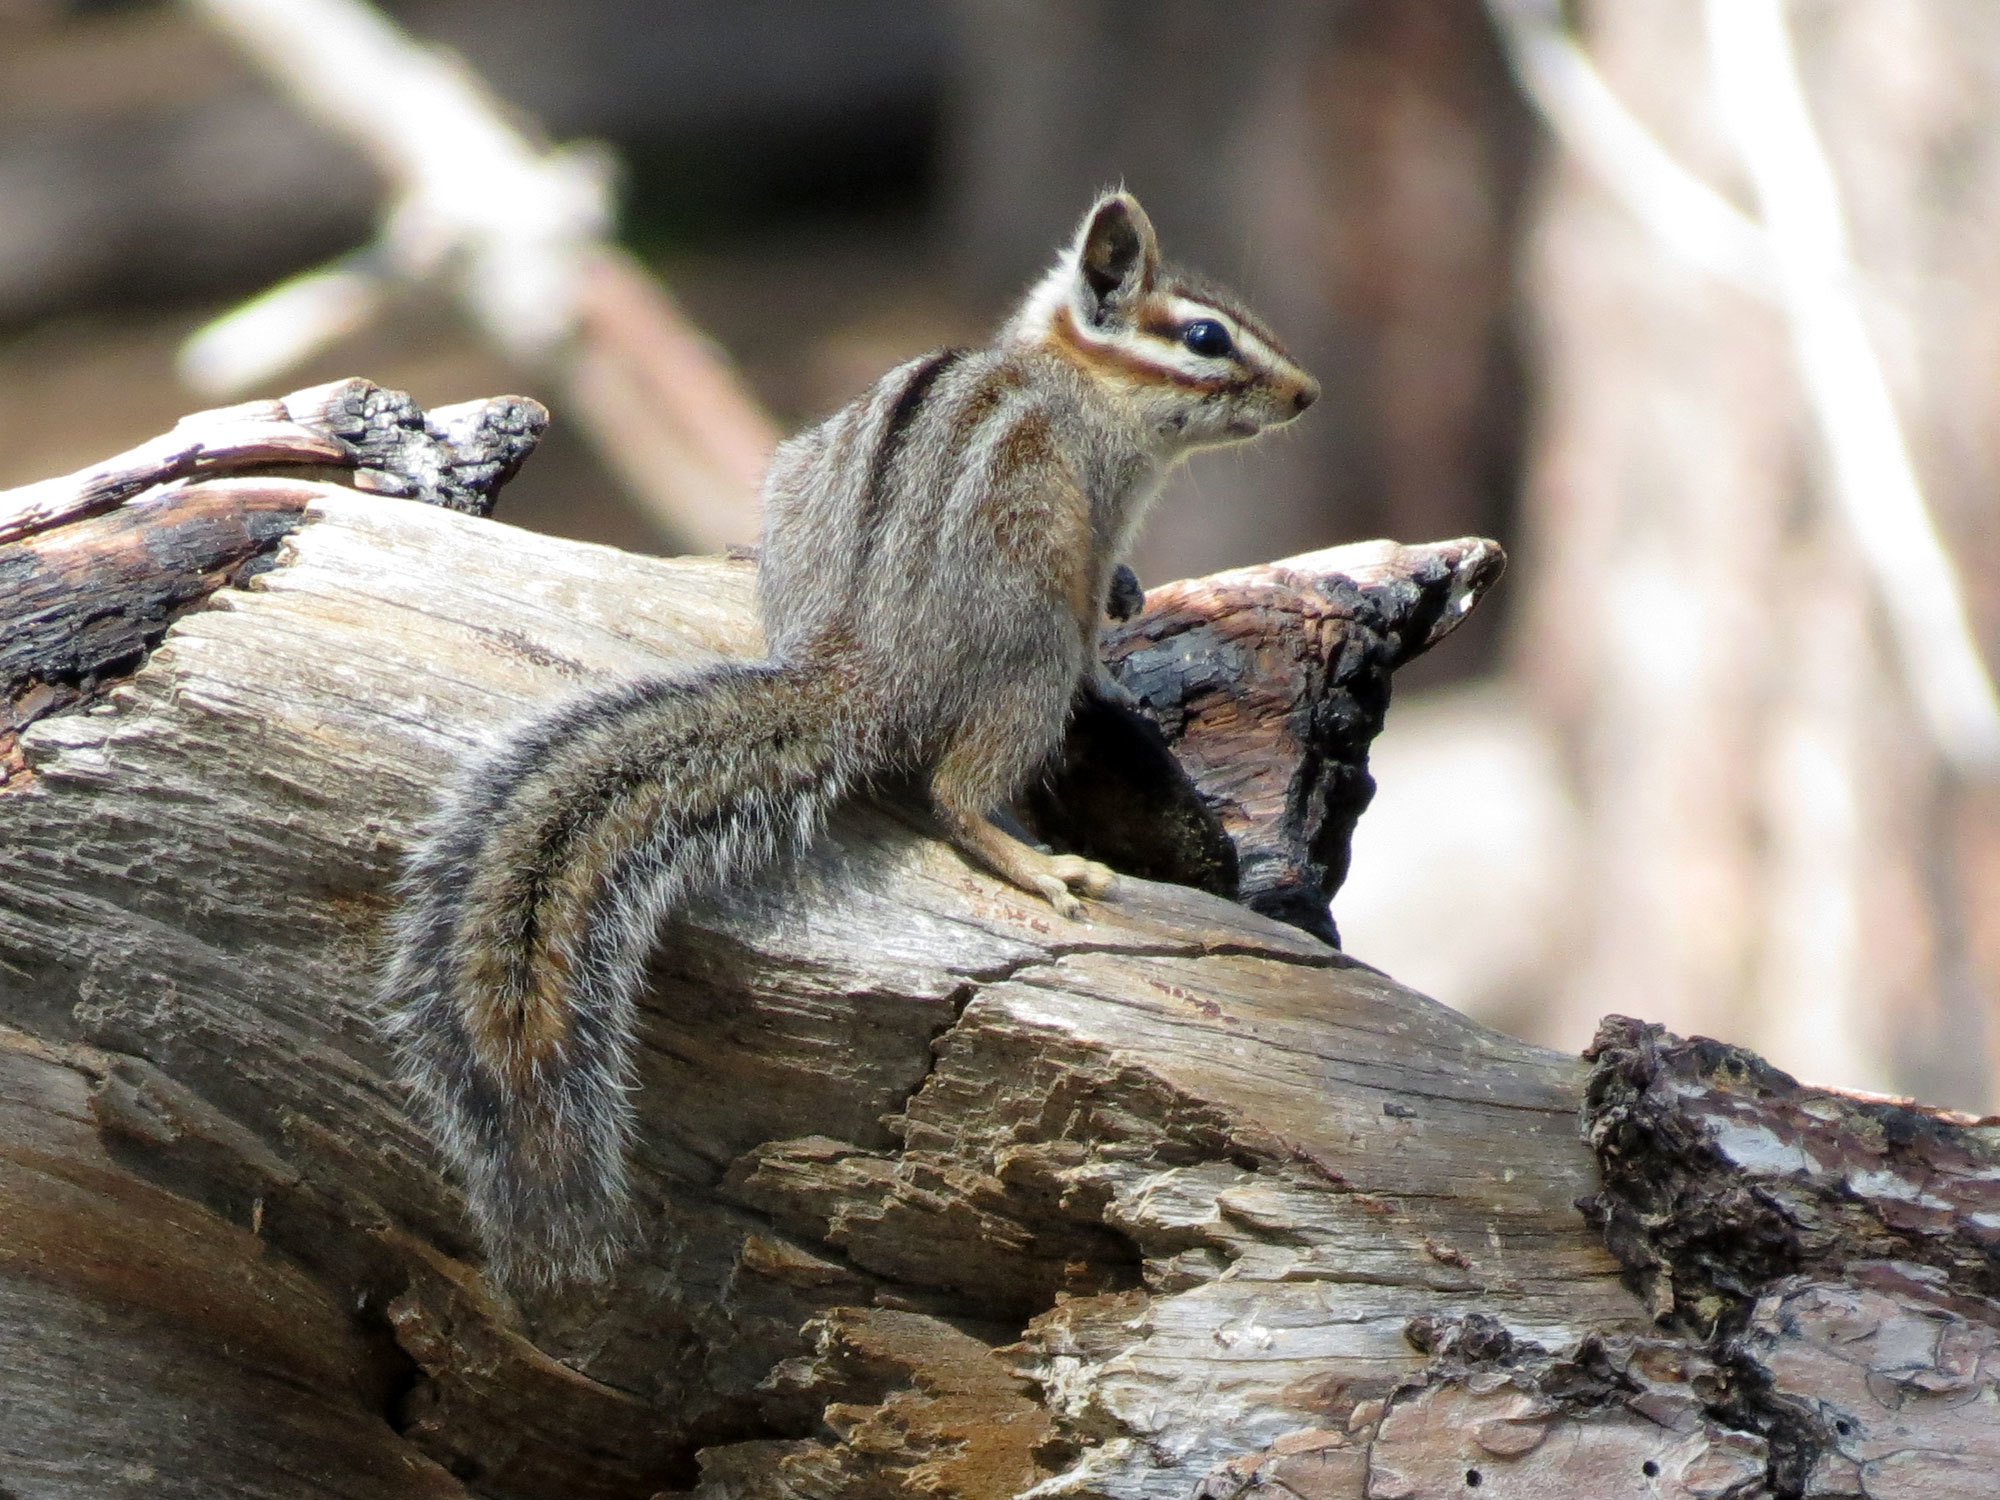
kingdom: Animalia
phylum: Chordata
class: Mammalia
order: Rodentia
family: Sciuridae
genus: Tamias
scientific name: Tamias dorsalis
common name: Cliff chipmunk
